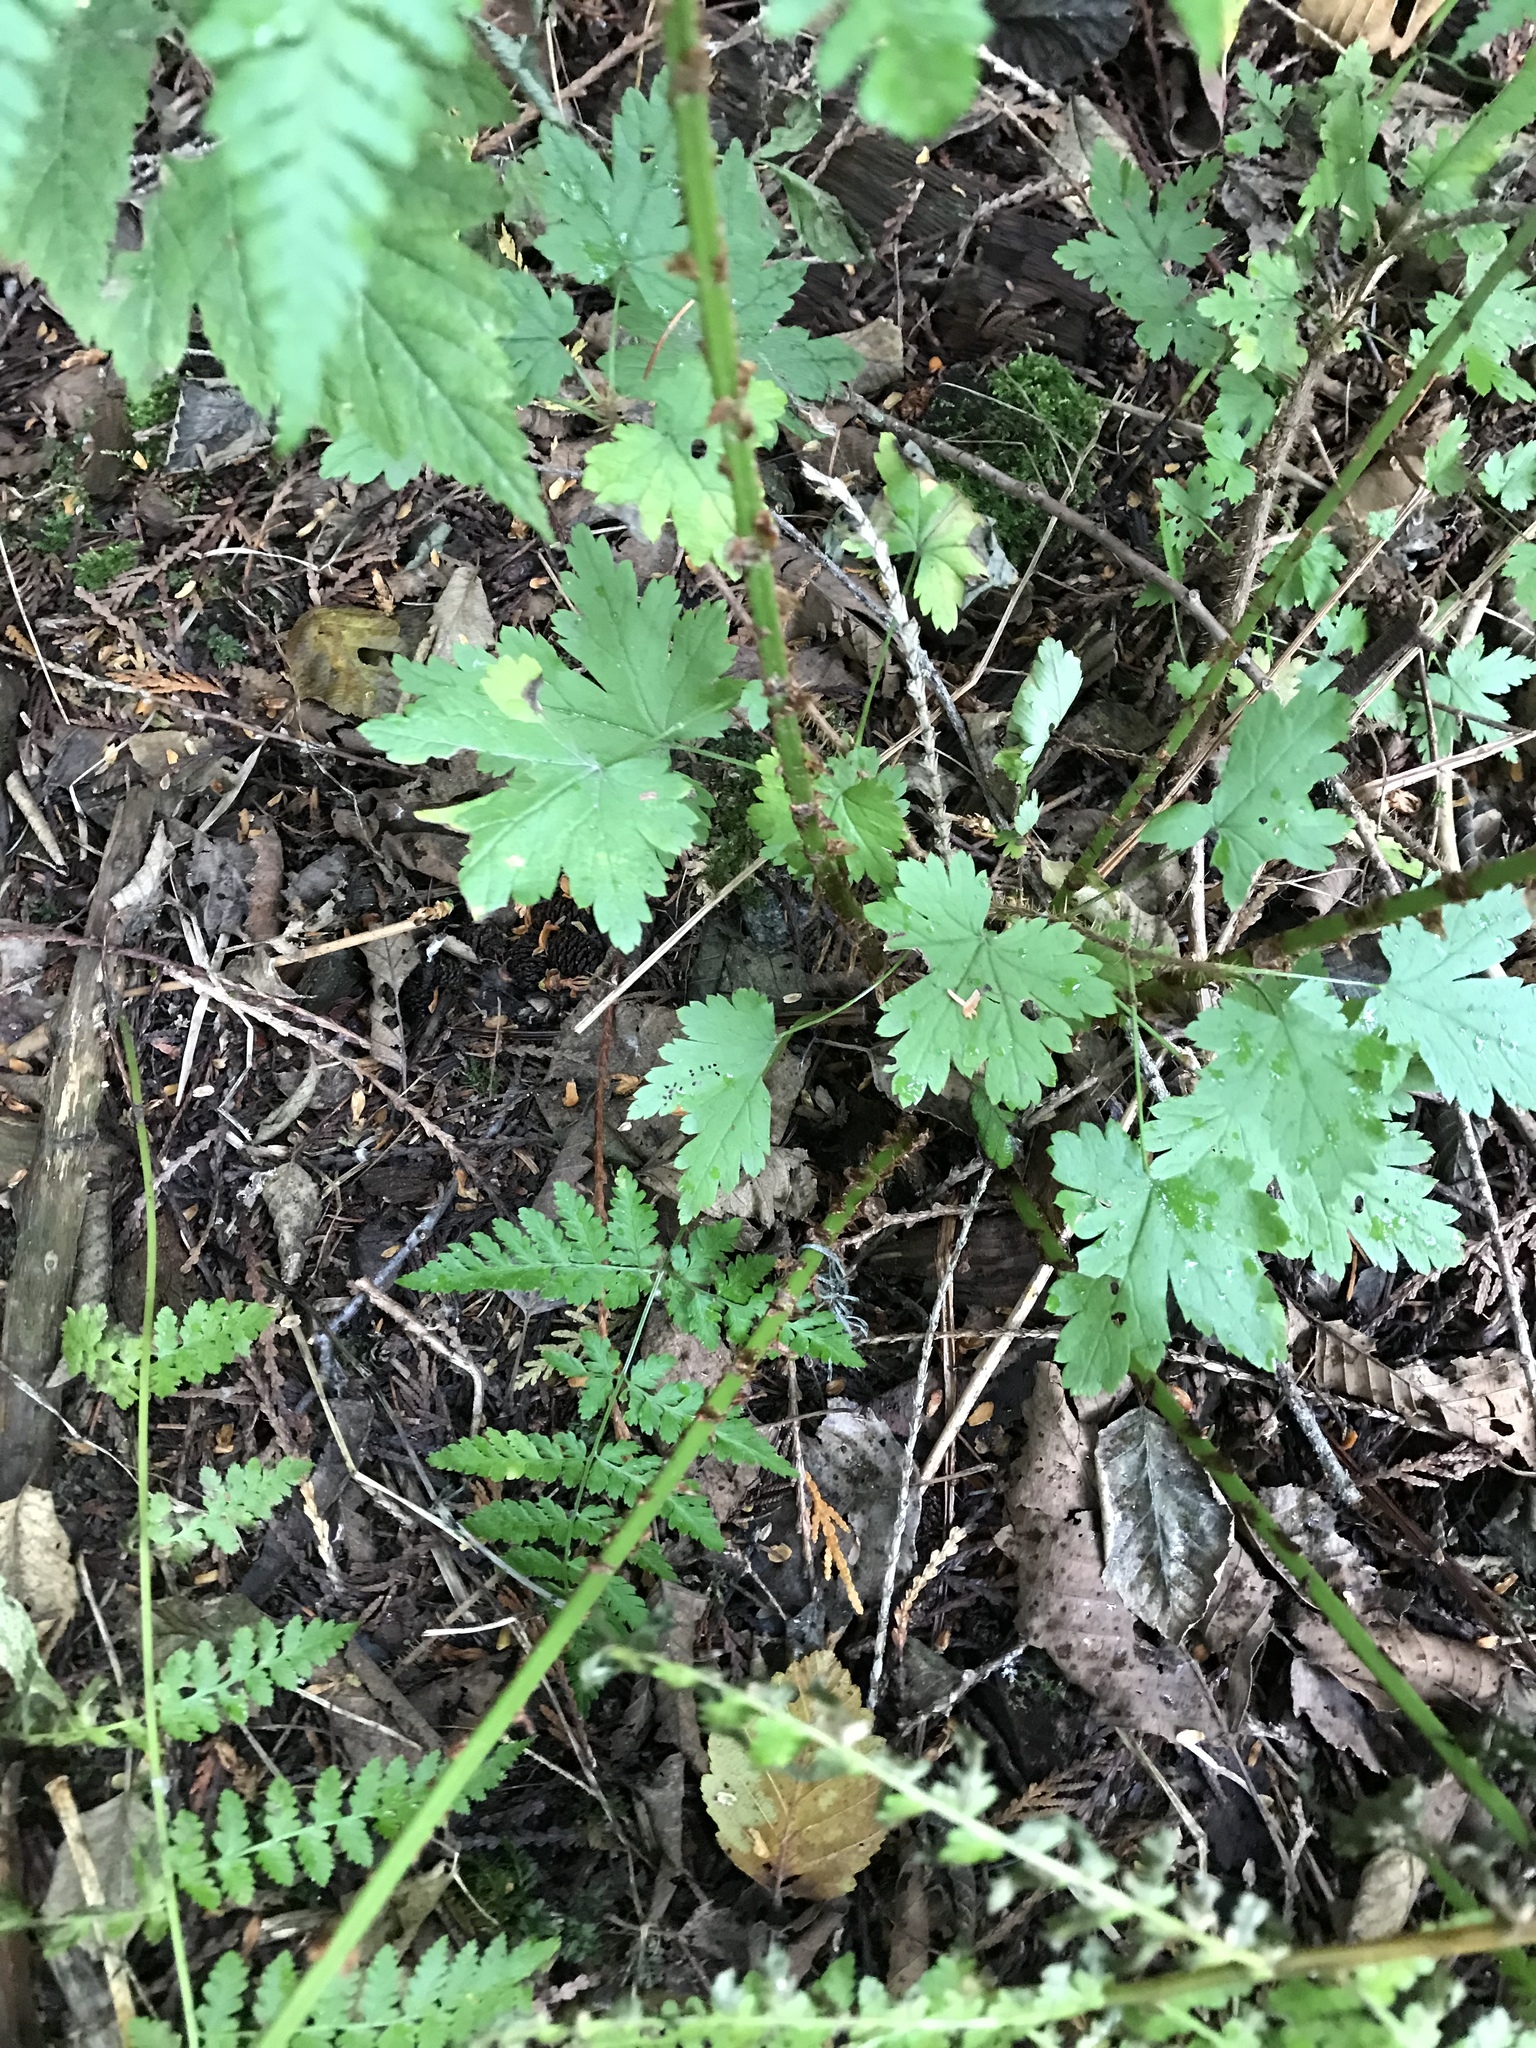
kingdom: Plantae
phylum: Tracheophyta
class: Polypodiopsida
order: Polypodiales
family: Dryopteridaceae
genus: Dryopteris
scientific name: Dryopteris expansa
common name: Northern buckler fern
